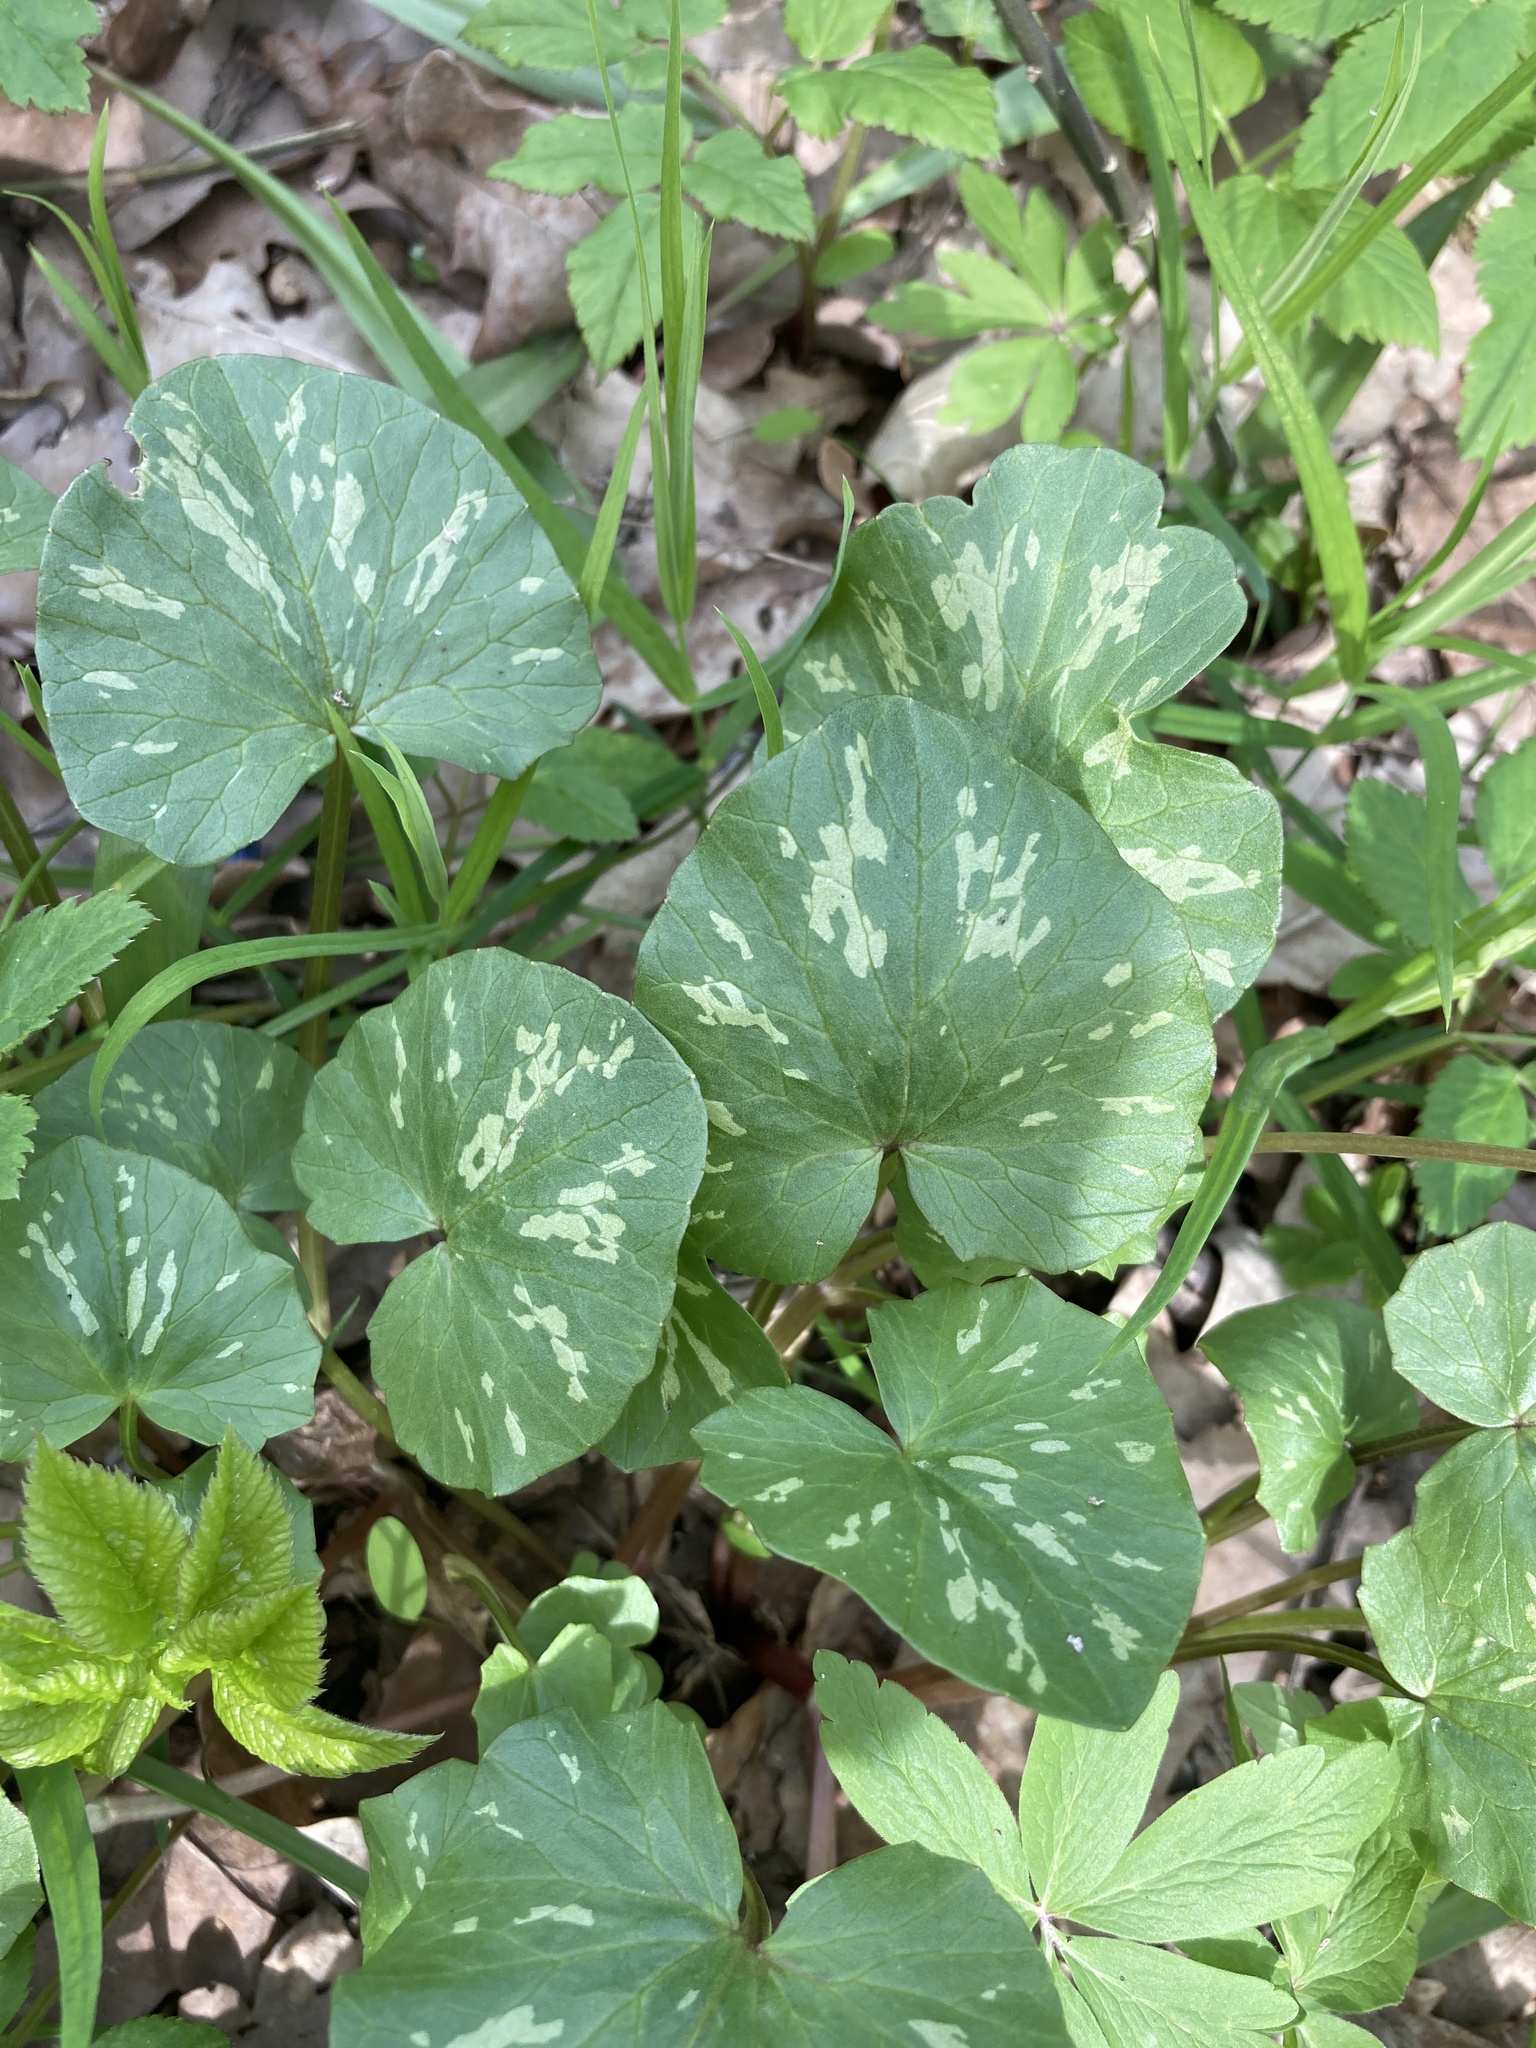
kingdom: Plantae
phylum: Tracheophyta
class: Magnoliopsida
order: Ranunculales
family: Ranunculaceae
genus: Ficaria
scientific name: Ficaria verna
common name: Lesser celandine
